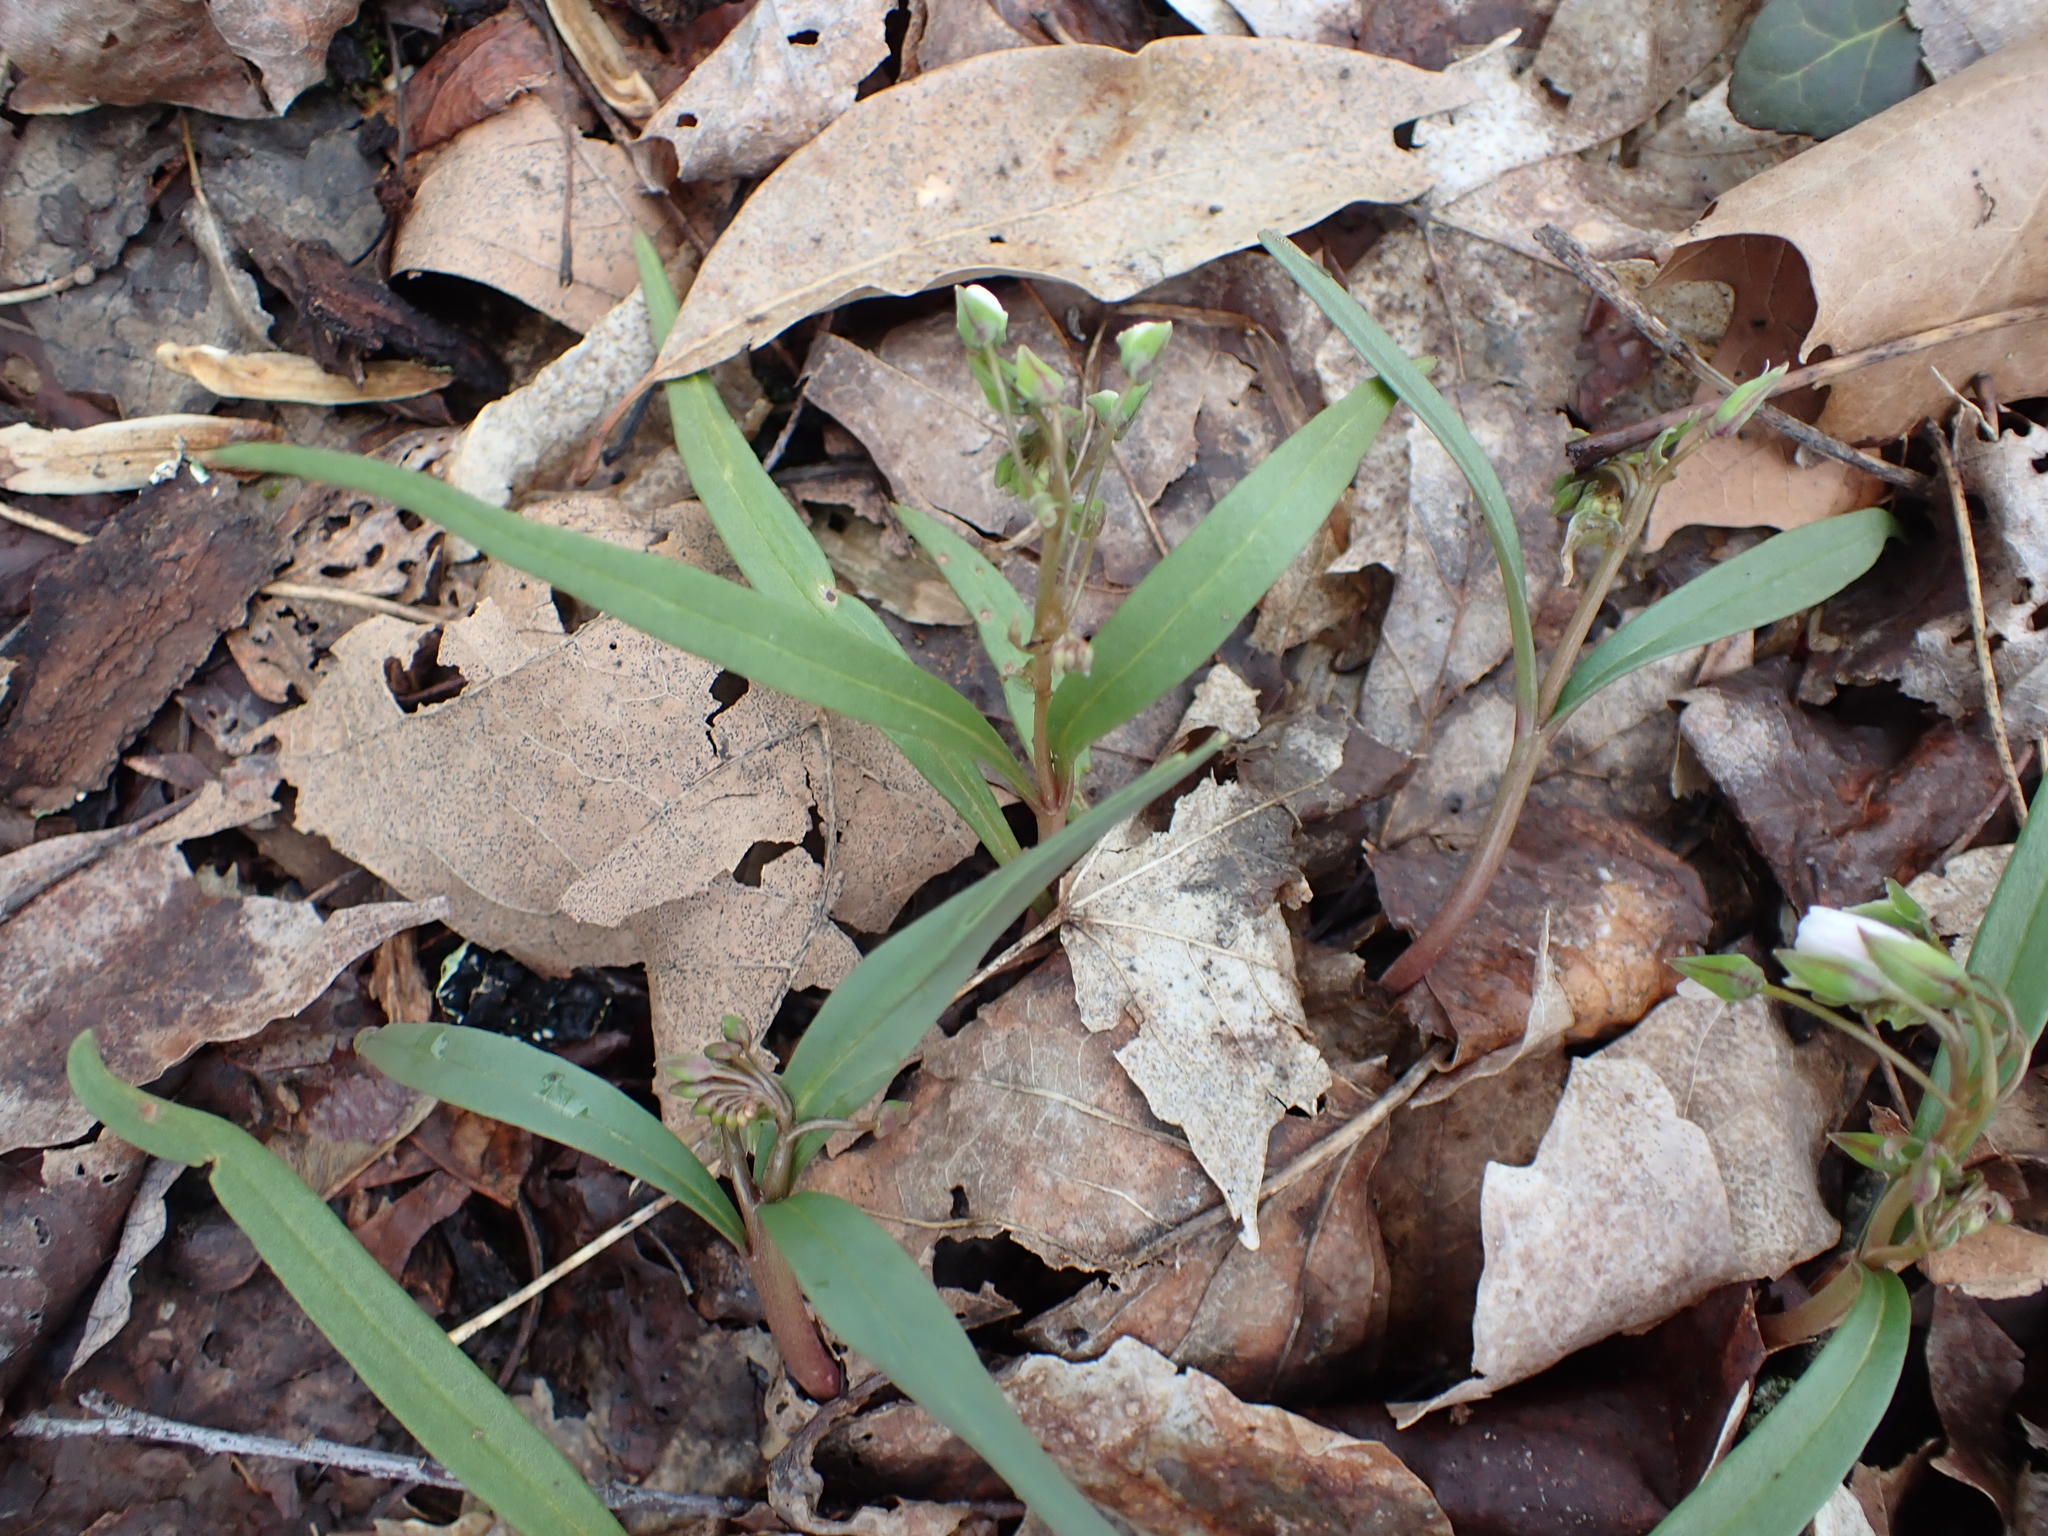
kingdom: Plantae
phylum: Tracheophyta
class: Magnoliopsida
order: Caryophyllales
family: Montiaceae
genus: Claytonia
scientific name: Claytonia virginica
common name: Virginia springbeauty
